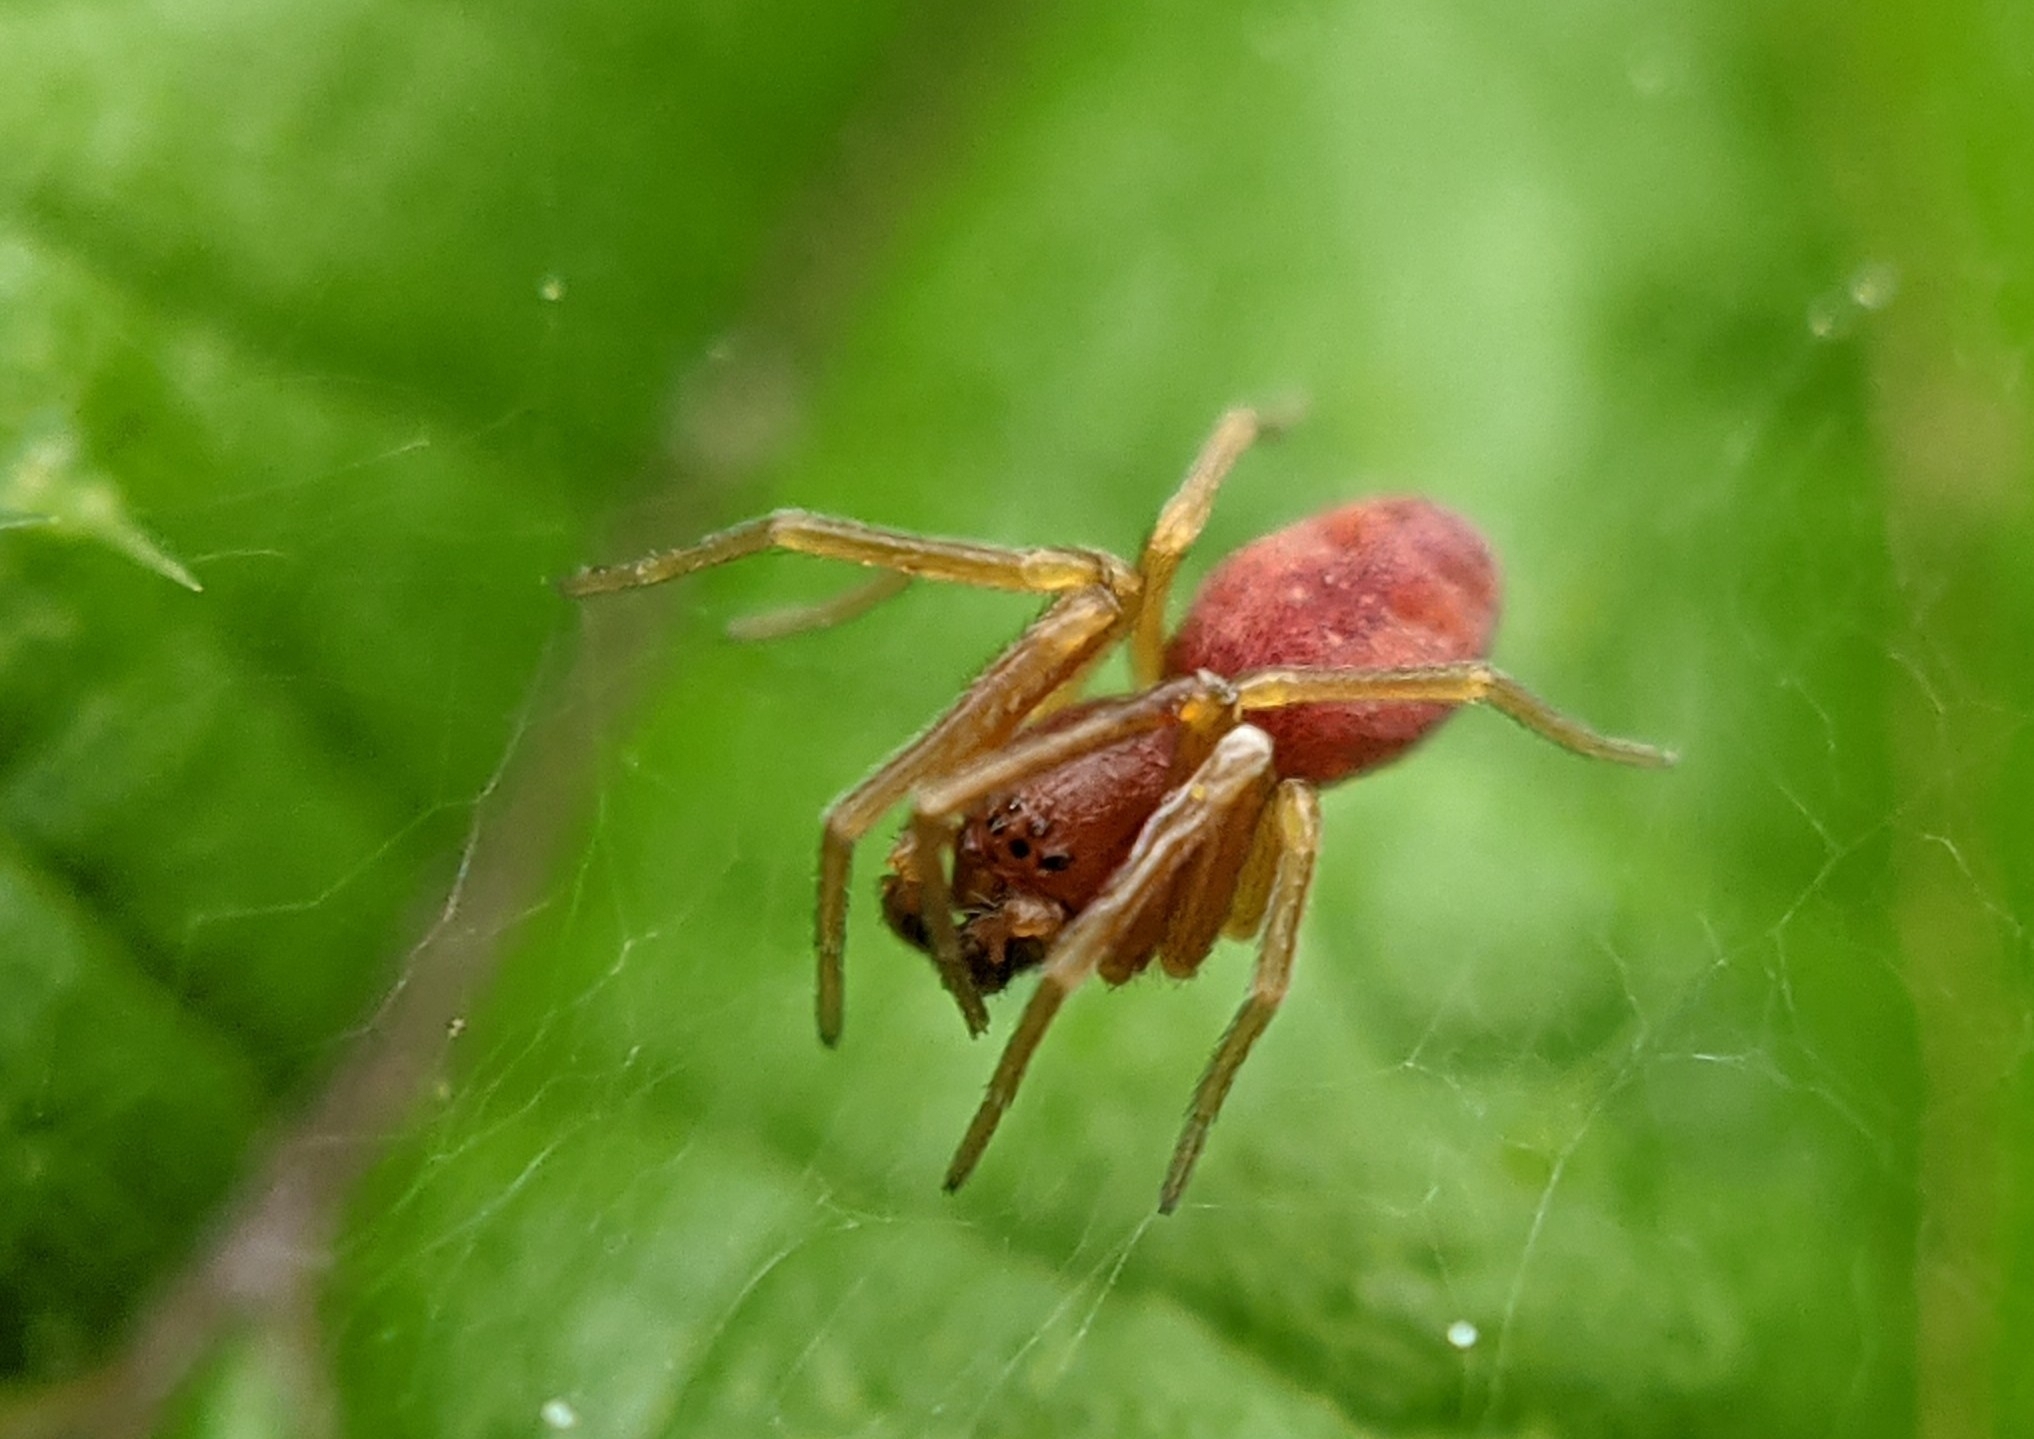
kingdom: Animalia
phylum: Arthropoda
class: Arachnida
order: Araneae
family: Dictynidae
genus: Nigma
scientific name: Nigma puella
